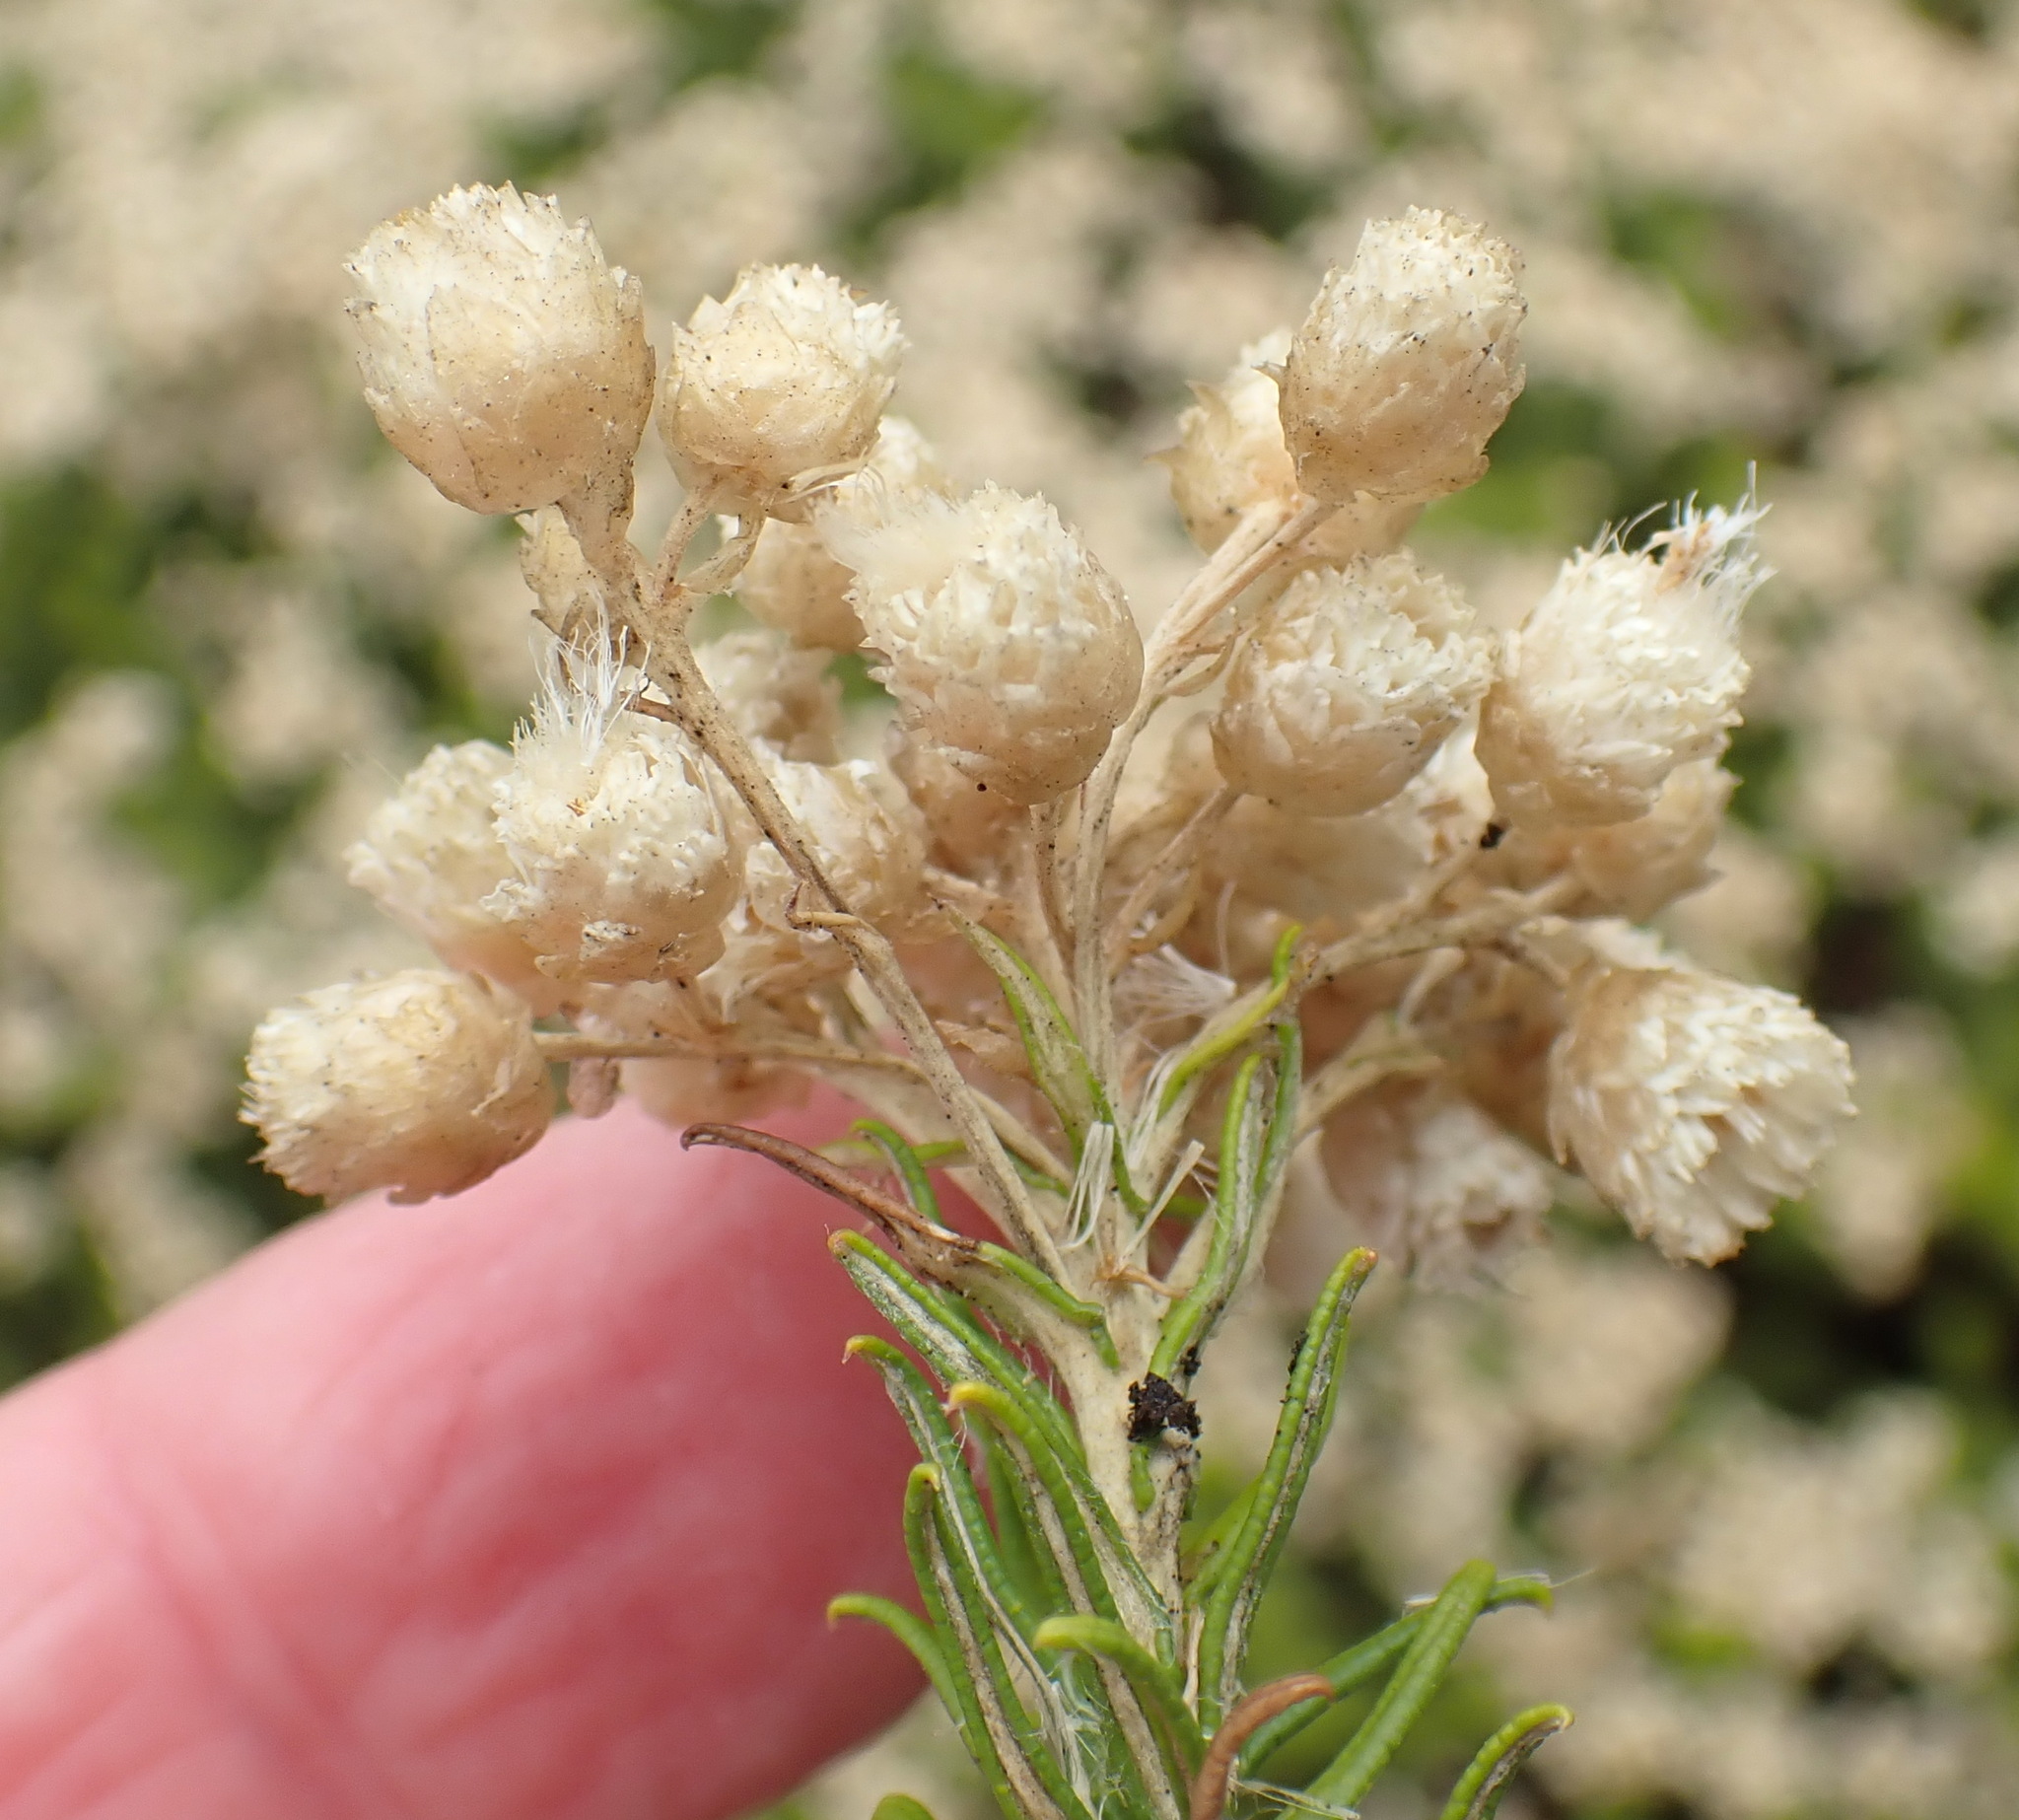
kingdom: Plantae
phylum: Tracheophyta
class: Magnoliopsida
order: Asterales
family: Asteraceae
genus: Helichrysum
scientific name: Helichrysum teretifolium
